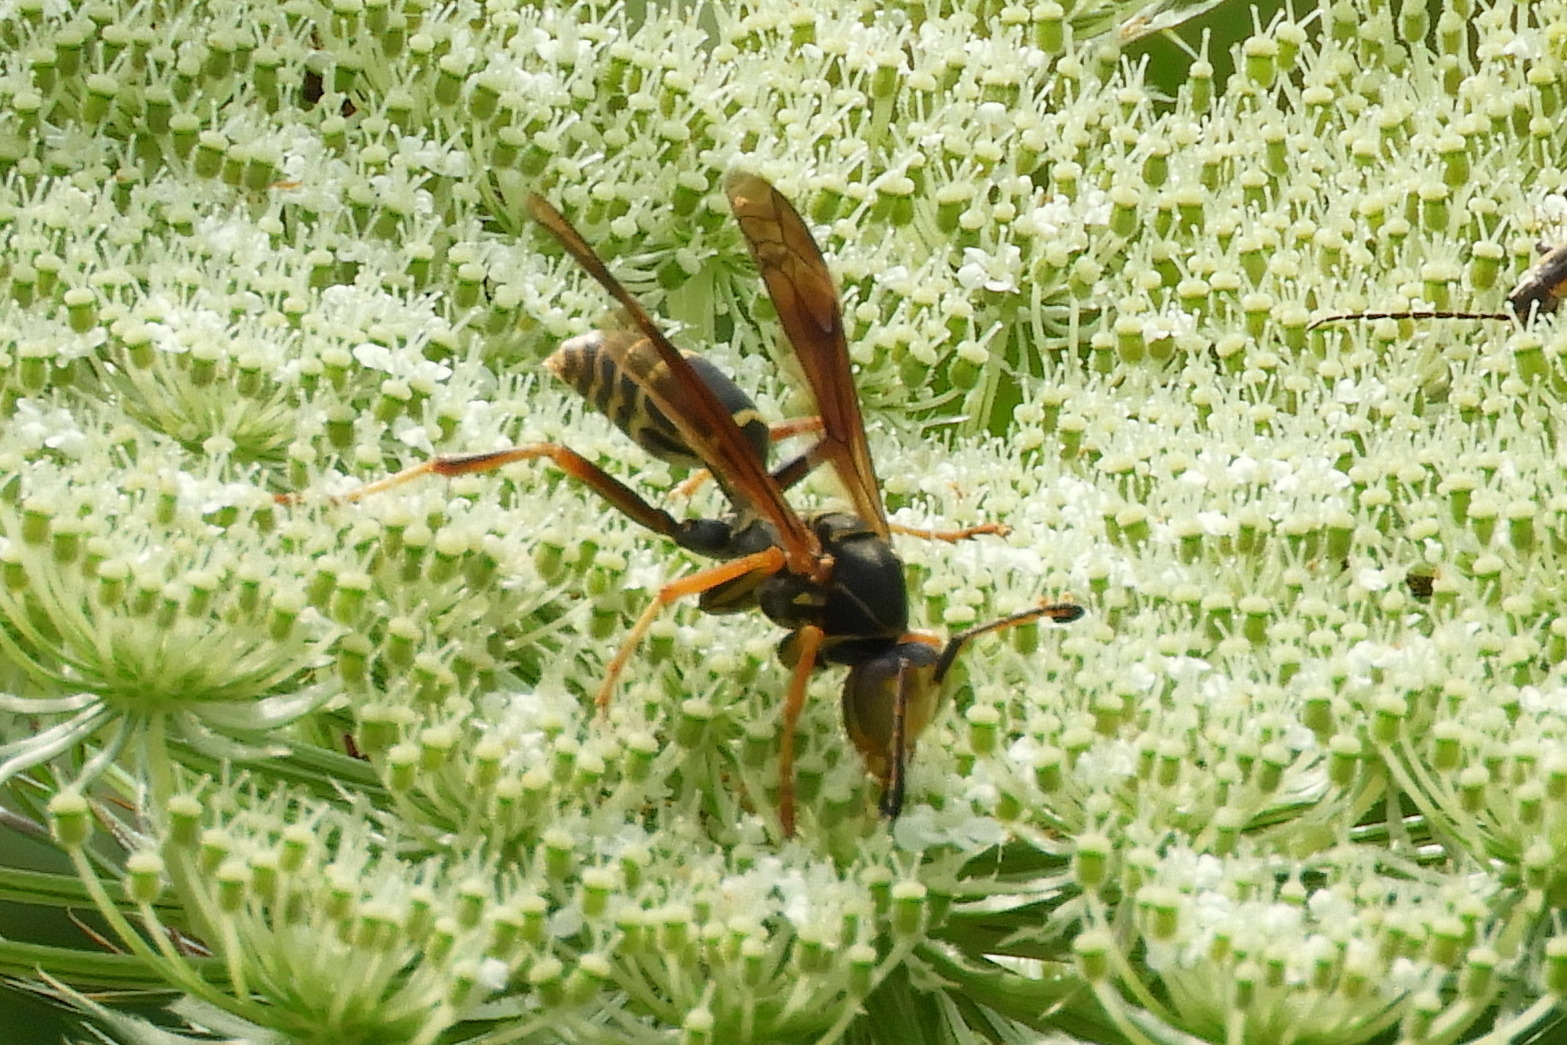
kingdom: Animalia
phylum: Arthropoda
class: Insecta
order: Hymenoptera
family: Eumenidae
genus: Polistes
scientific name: Polistes fuscatus
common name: Dark paper wasp
